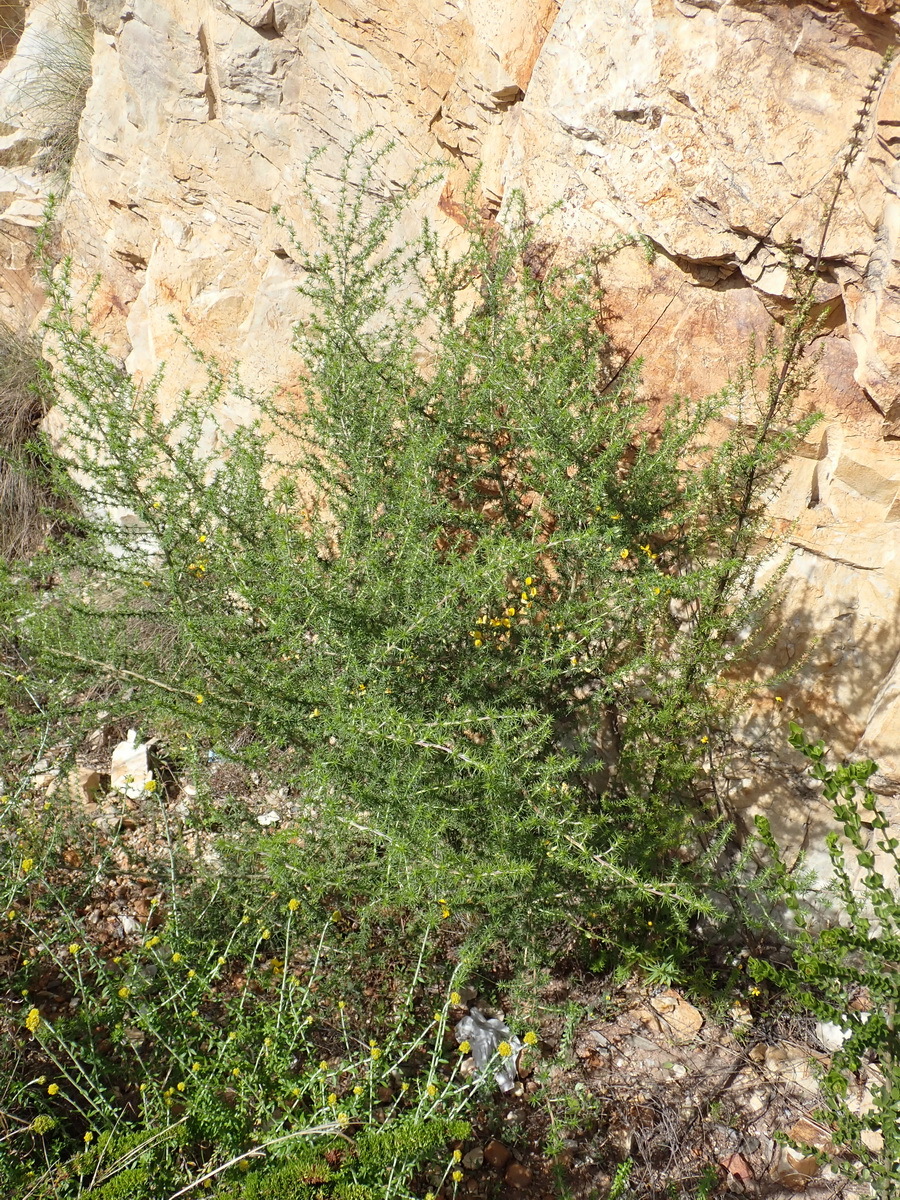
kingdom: Plantae
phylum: Tracheophyta
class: Magnoliopsida
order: Fabales
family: Fabaceae
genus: Aspalathus
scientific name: Aspalathus kougaensis
